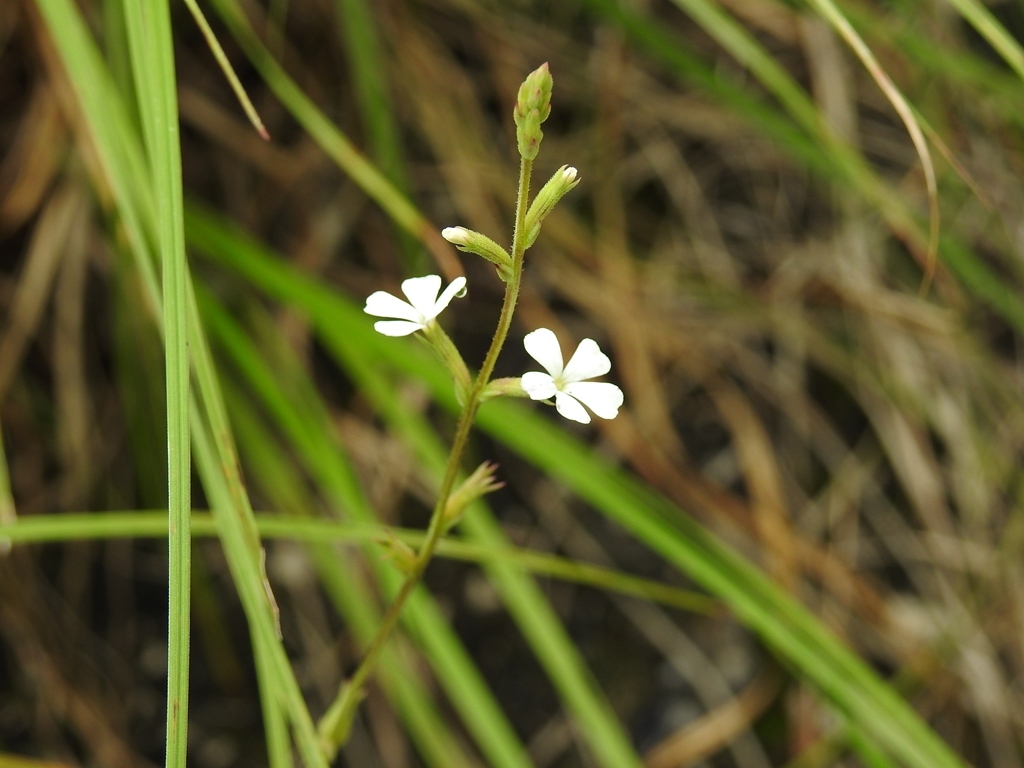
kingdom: Plantae
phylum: Tracheophyta
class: Magnoliopsida
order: Lamiales
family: Orobanchaceae
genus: Buchnera
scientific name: Buchnera pusilla
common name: Pygmy bluehearts
